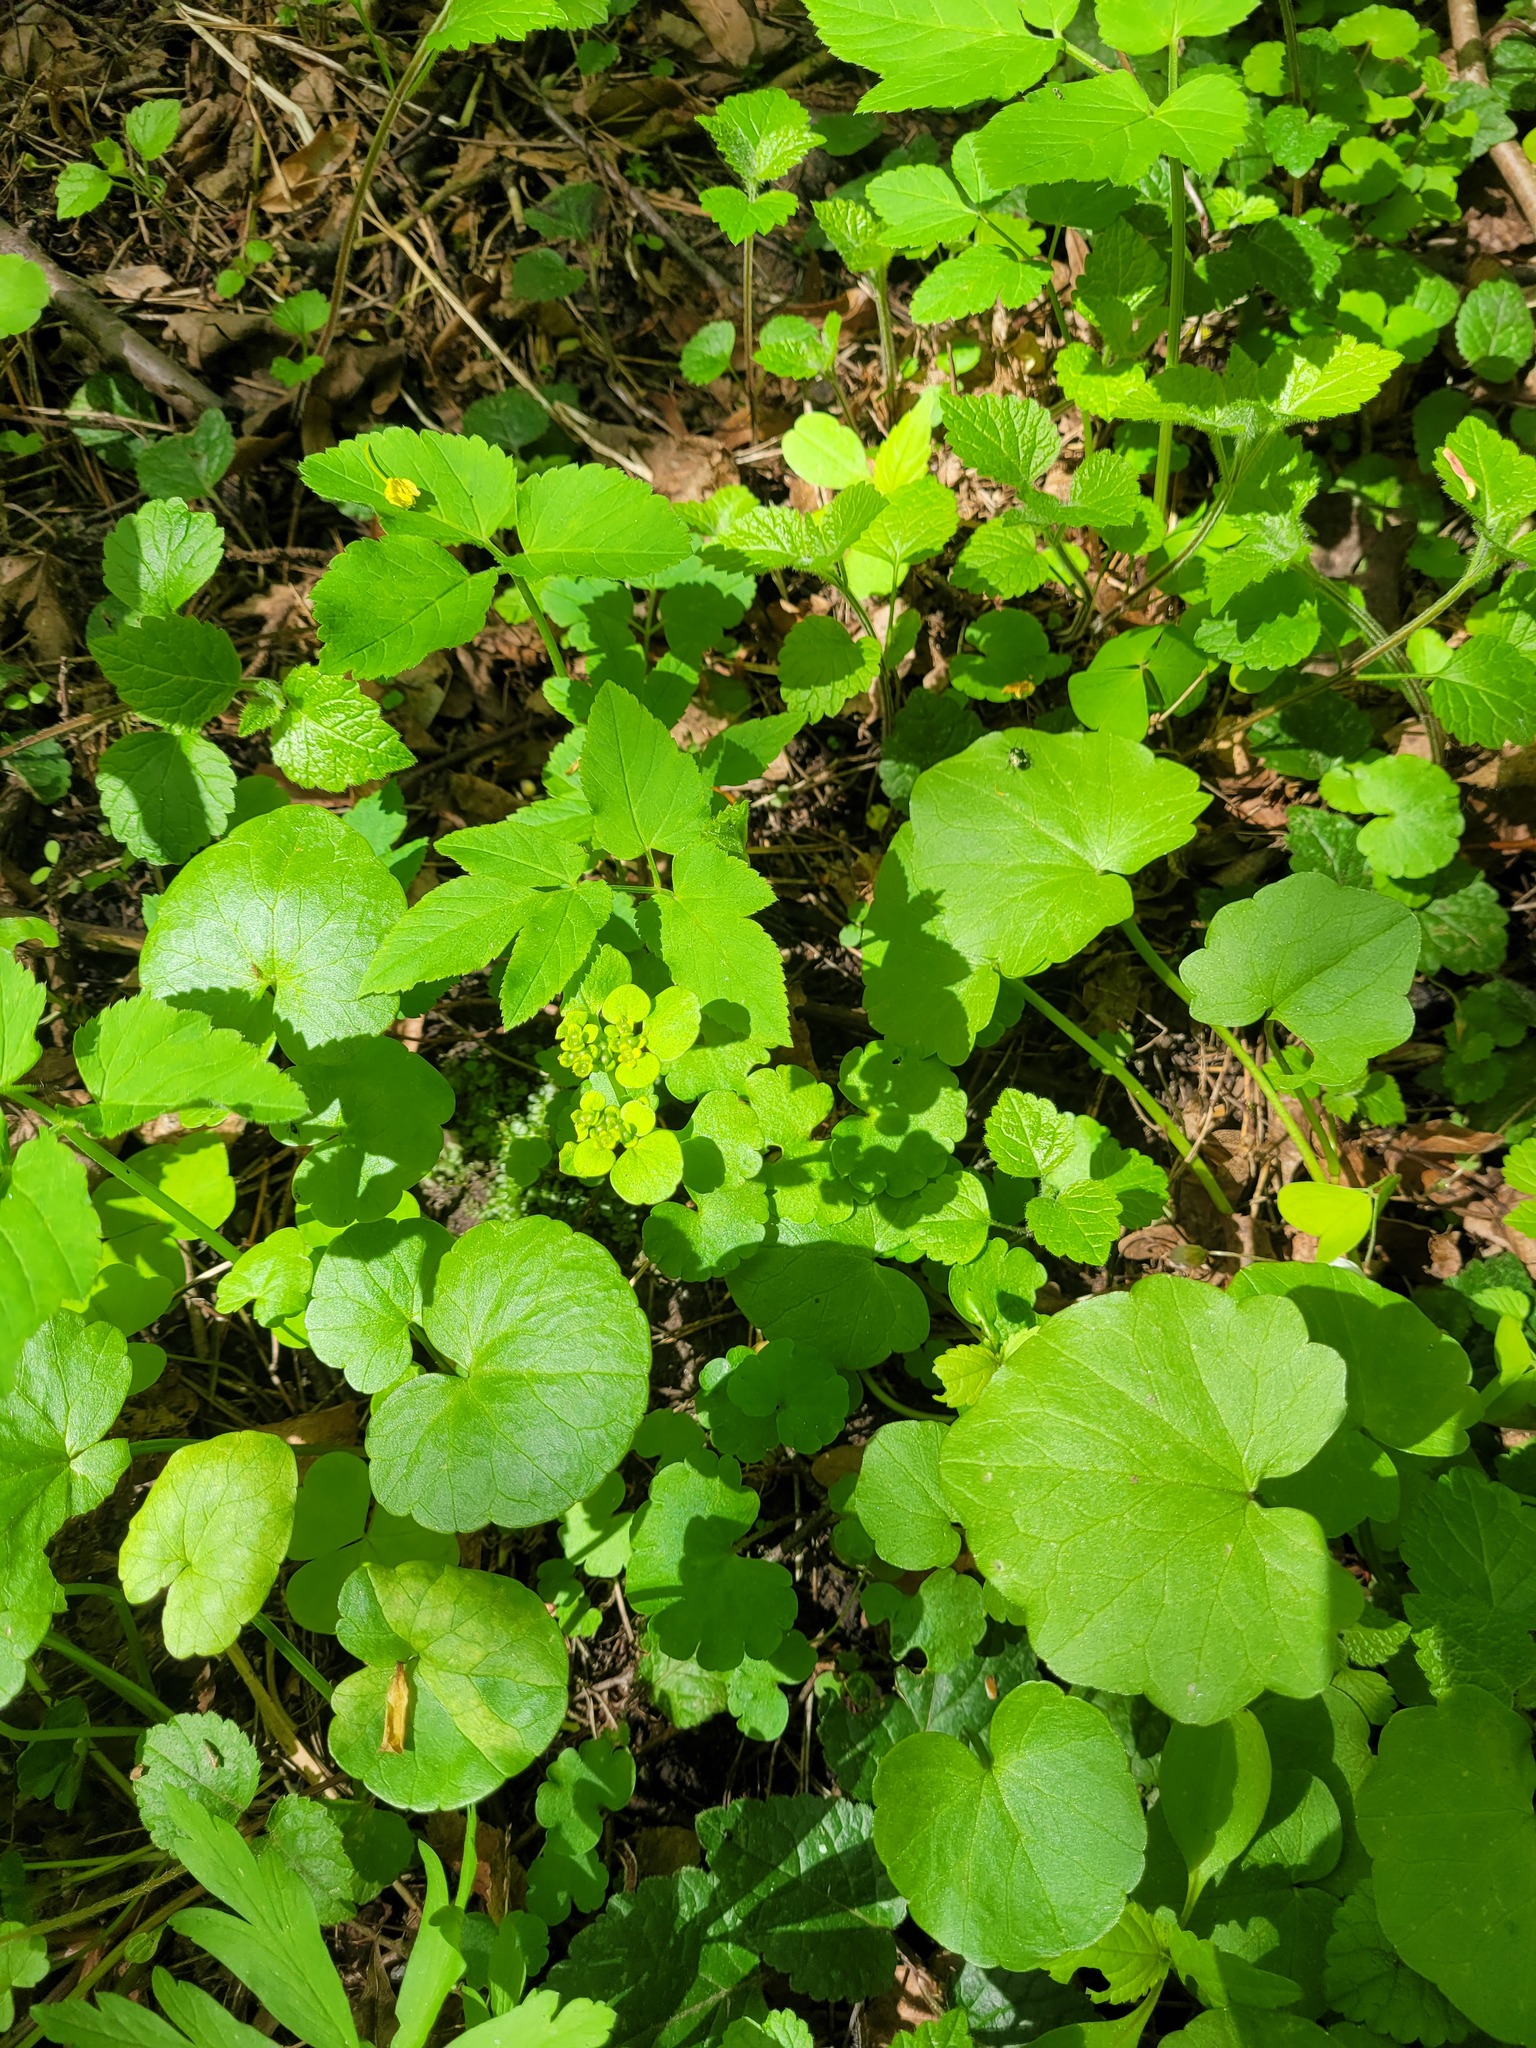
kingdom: Plantae
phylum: Tracheophyta
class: Magnoliopsida
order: Saxifragales
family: Saxifragaceae
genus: Chrysosplenium
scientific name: Chrysosplenium alternifolium
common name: Alternate-leaved golden-saxifrage
